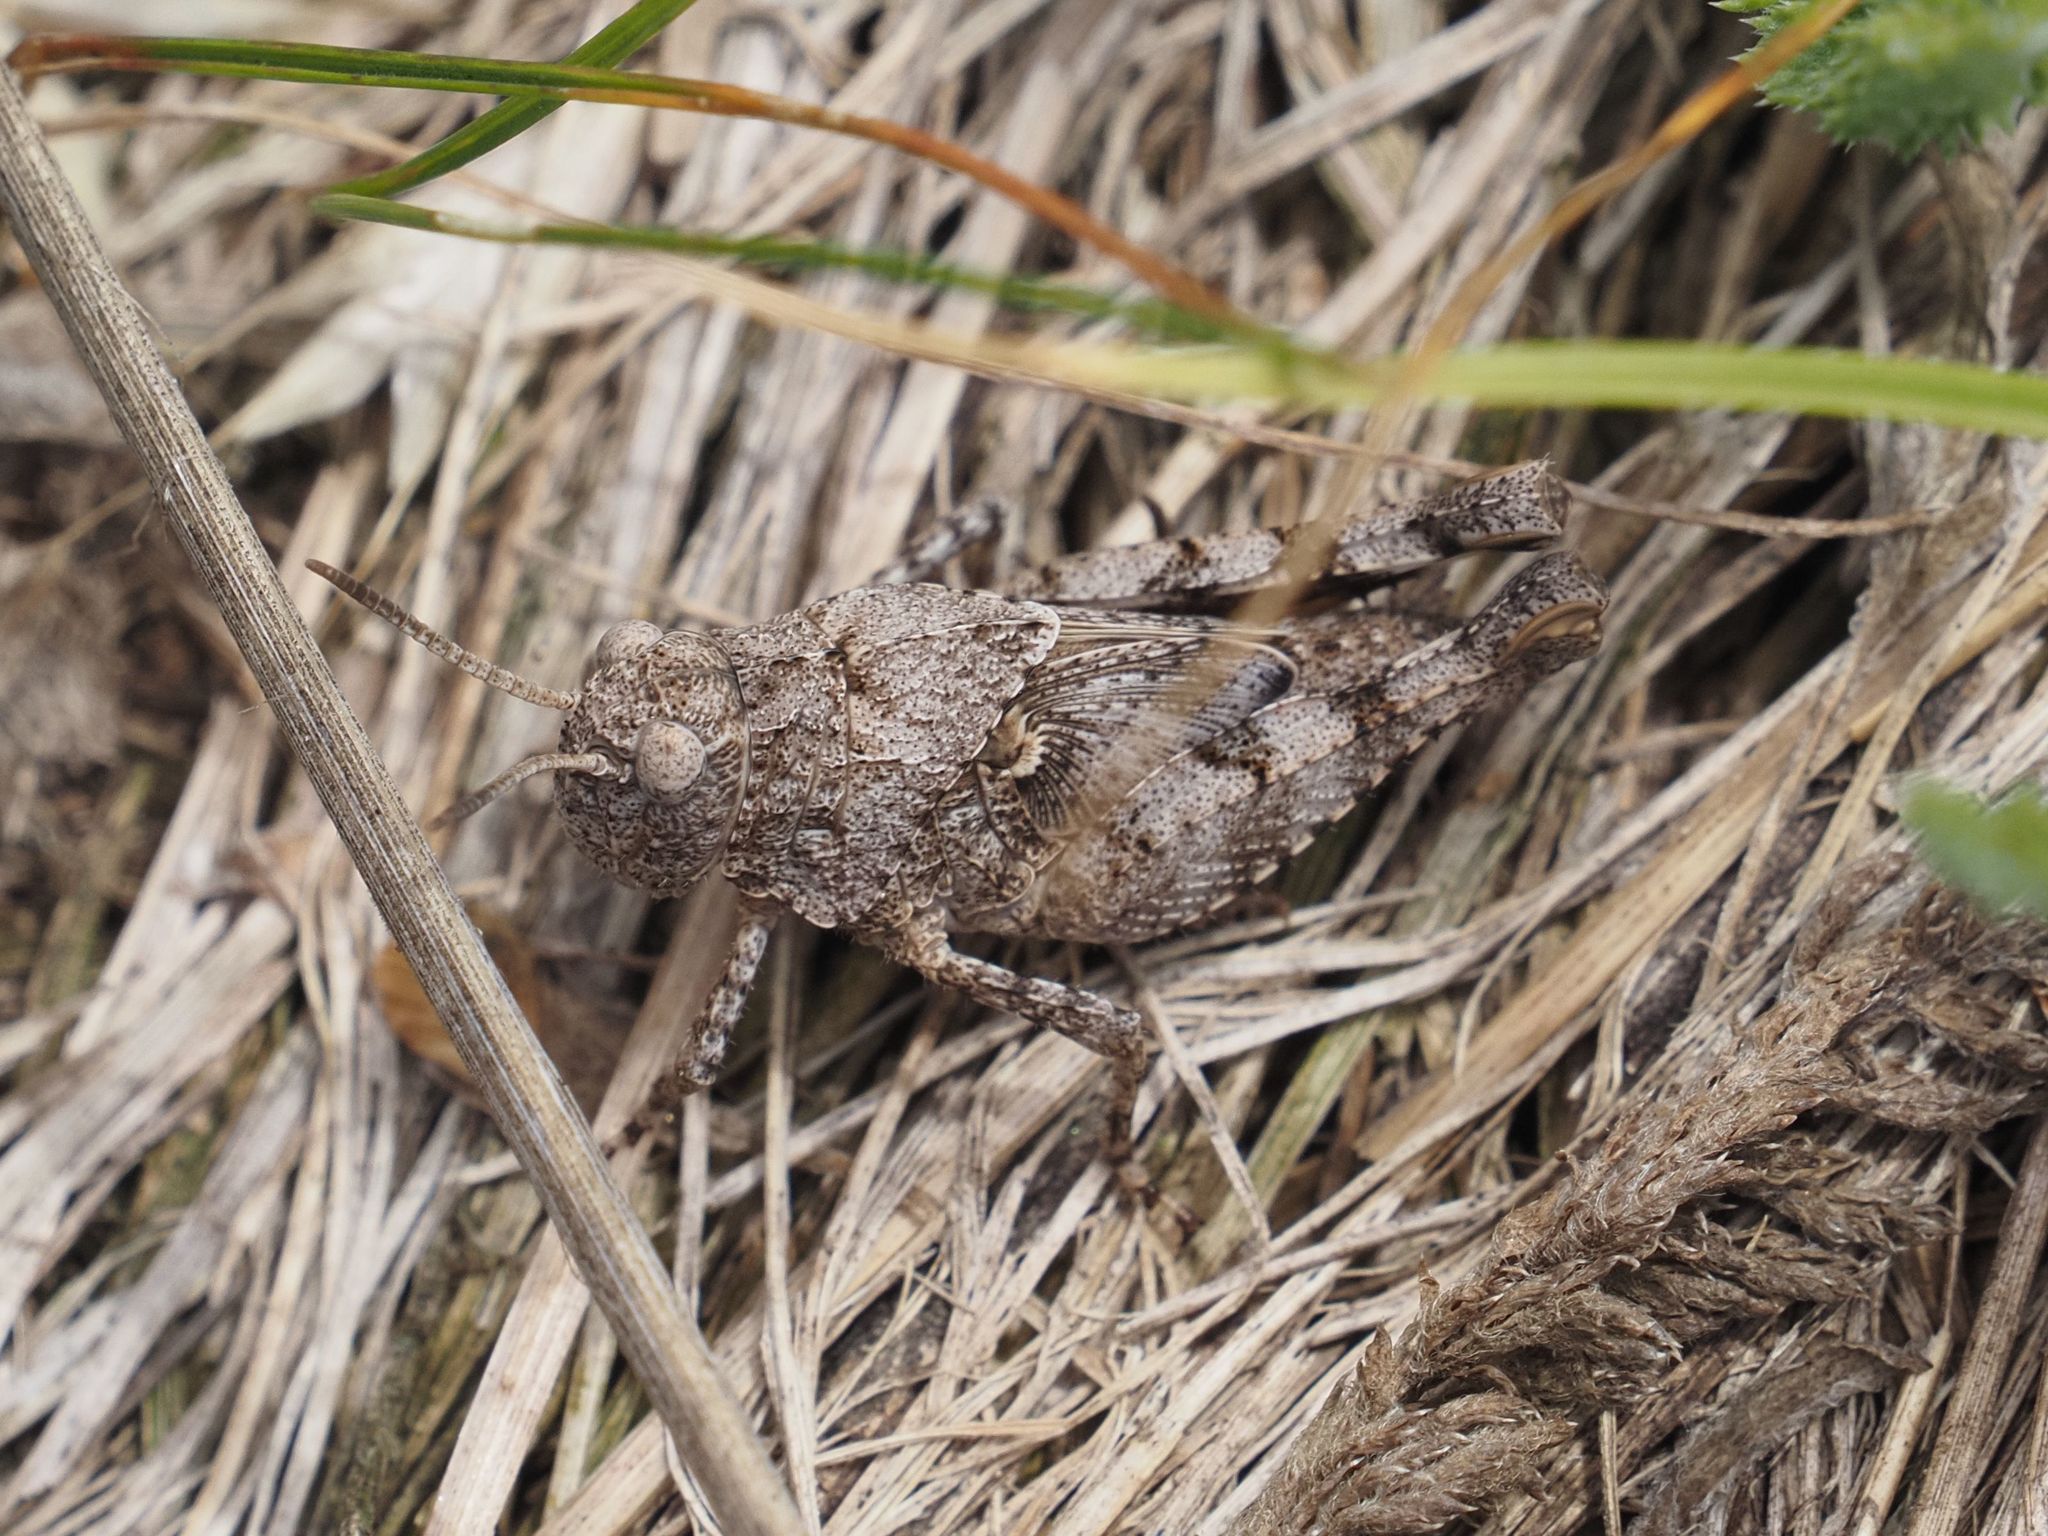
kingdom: Animalia
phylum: Arthropoda
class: Insecta
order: Orthoptera
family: Acrididae
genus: Oedipoda
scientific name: Oedipoda caerulescens
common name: Blue-winged grasshopper
